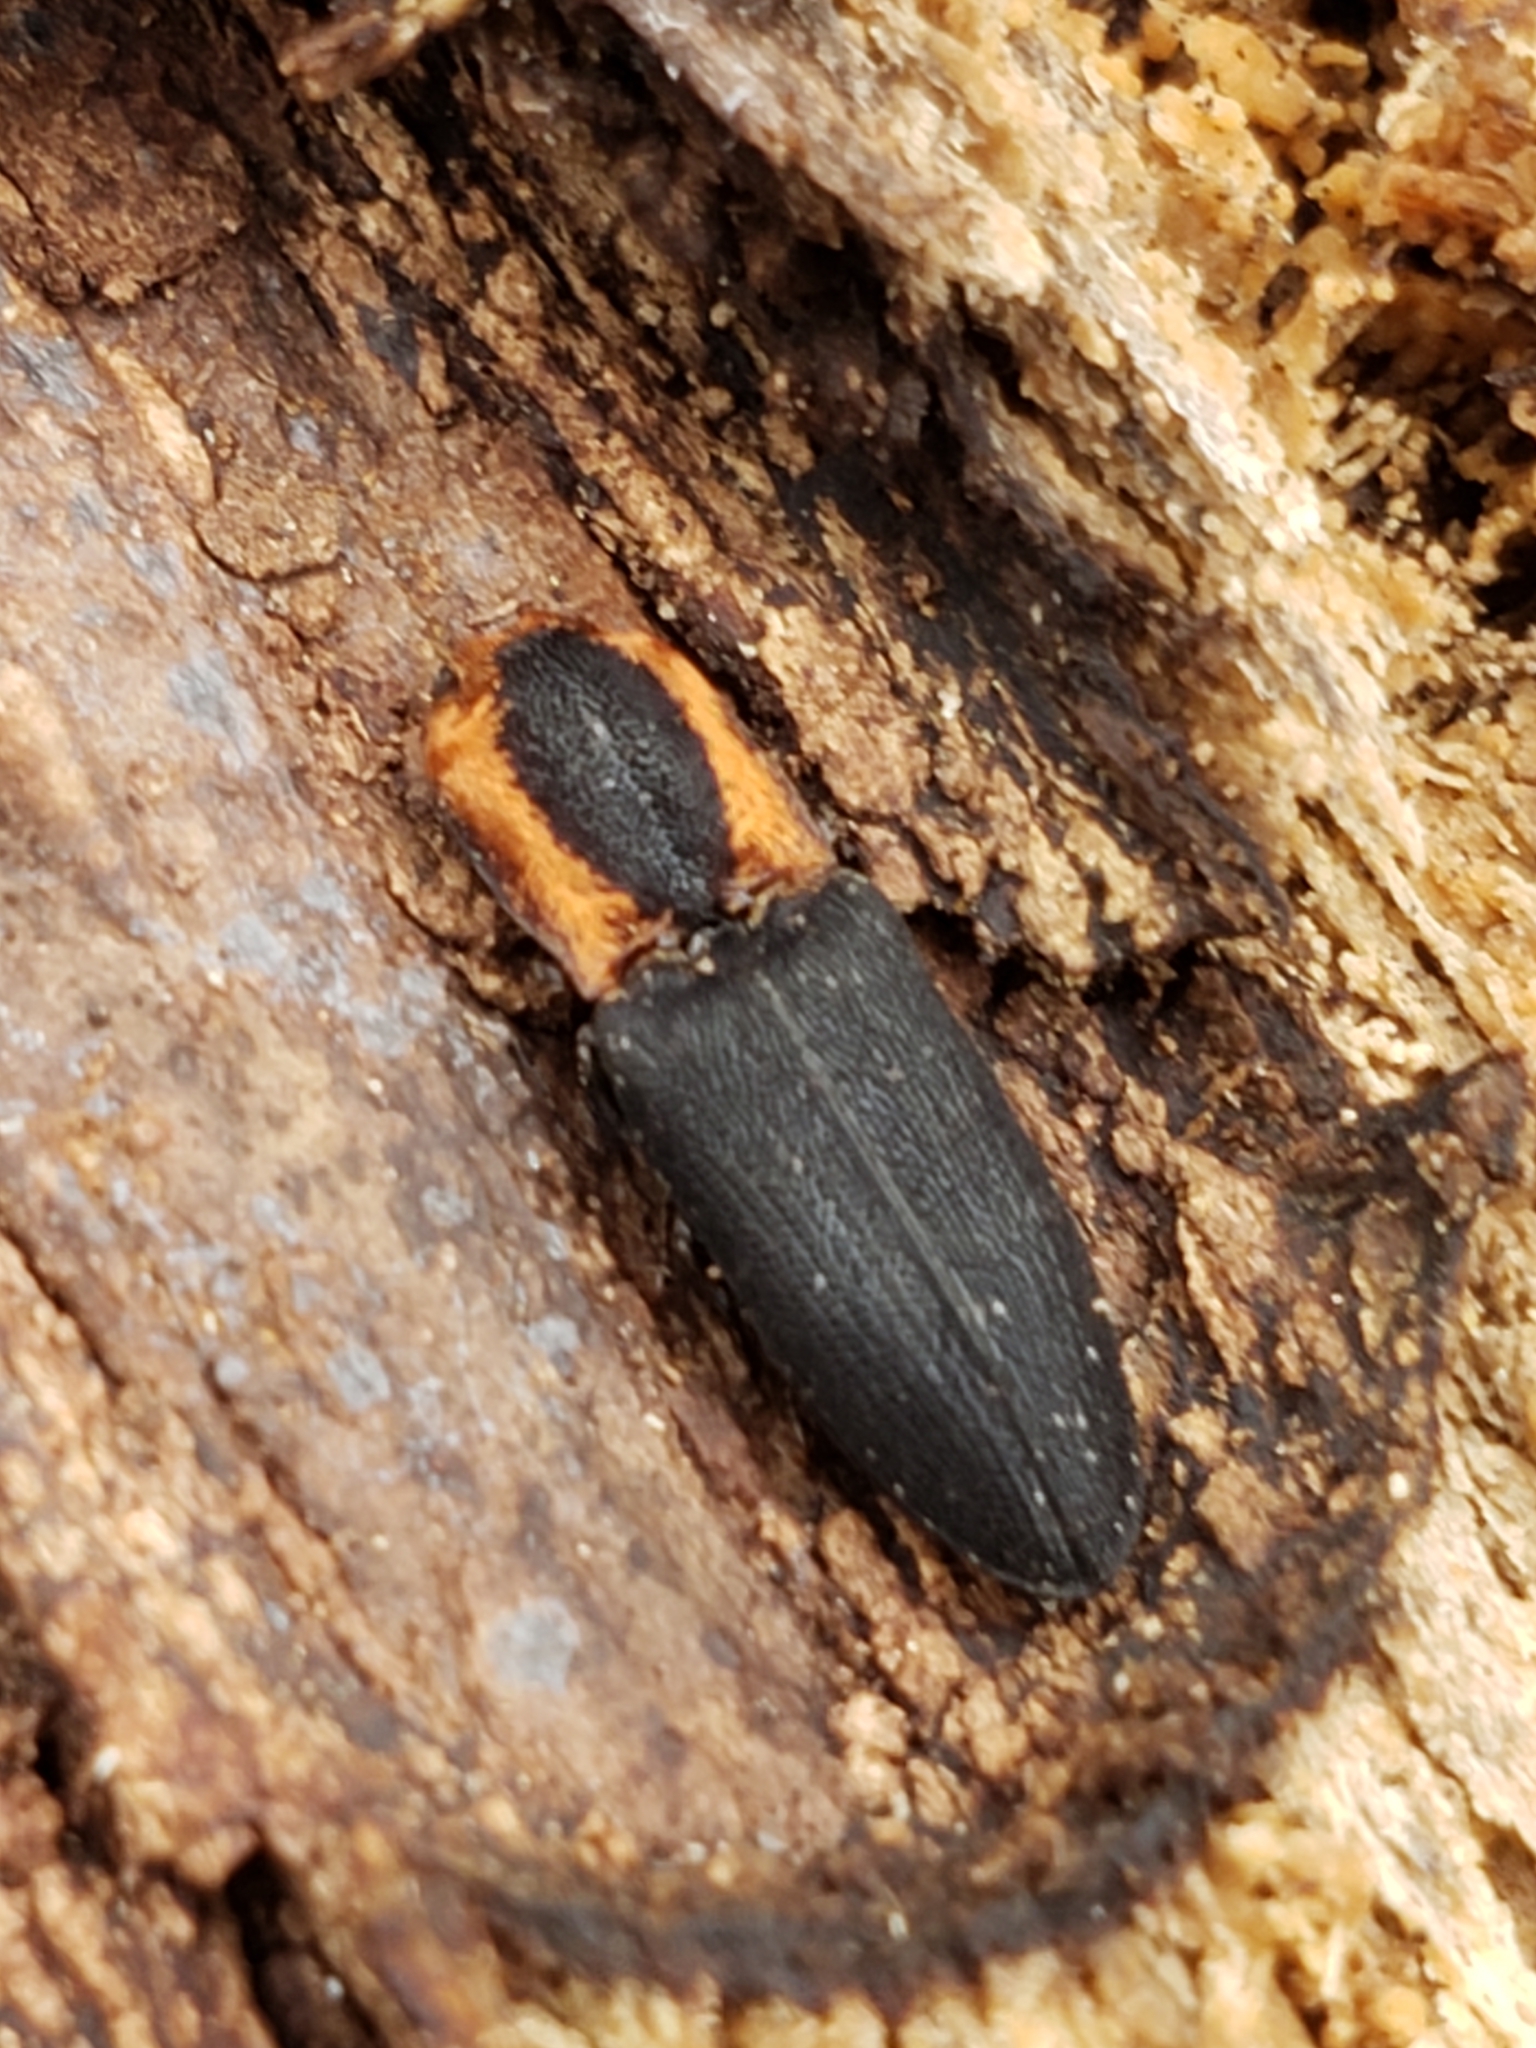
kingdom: Animalia
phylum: Arthropoda
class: Insecta
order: Coleoptera
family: Elateridae
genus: Lacon
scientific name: Lacon discoideus
